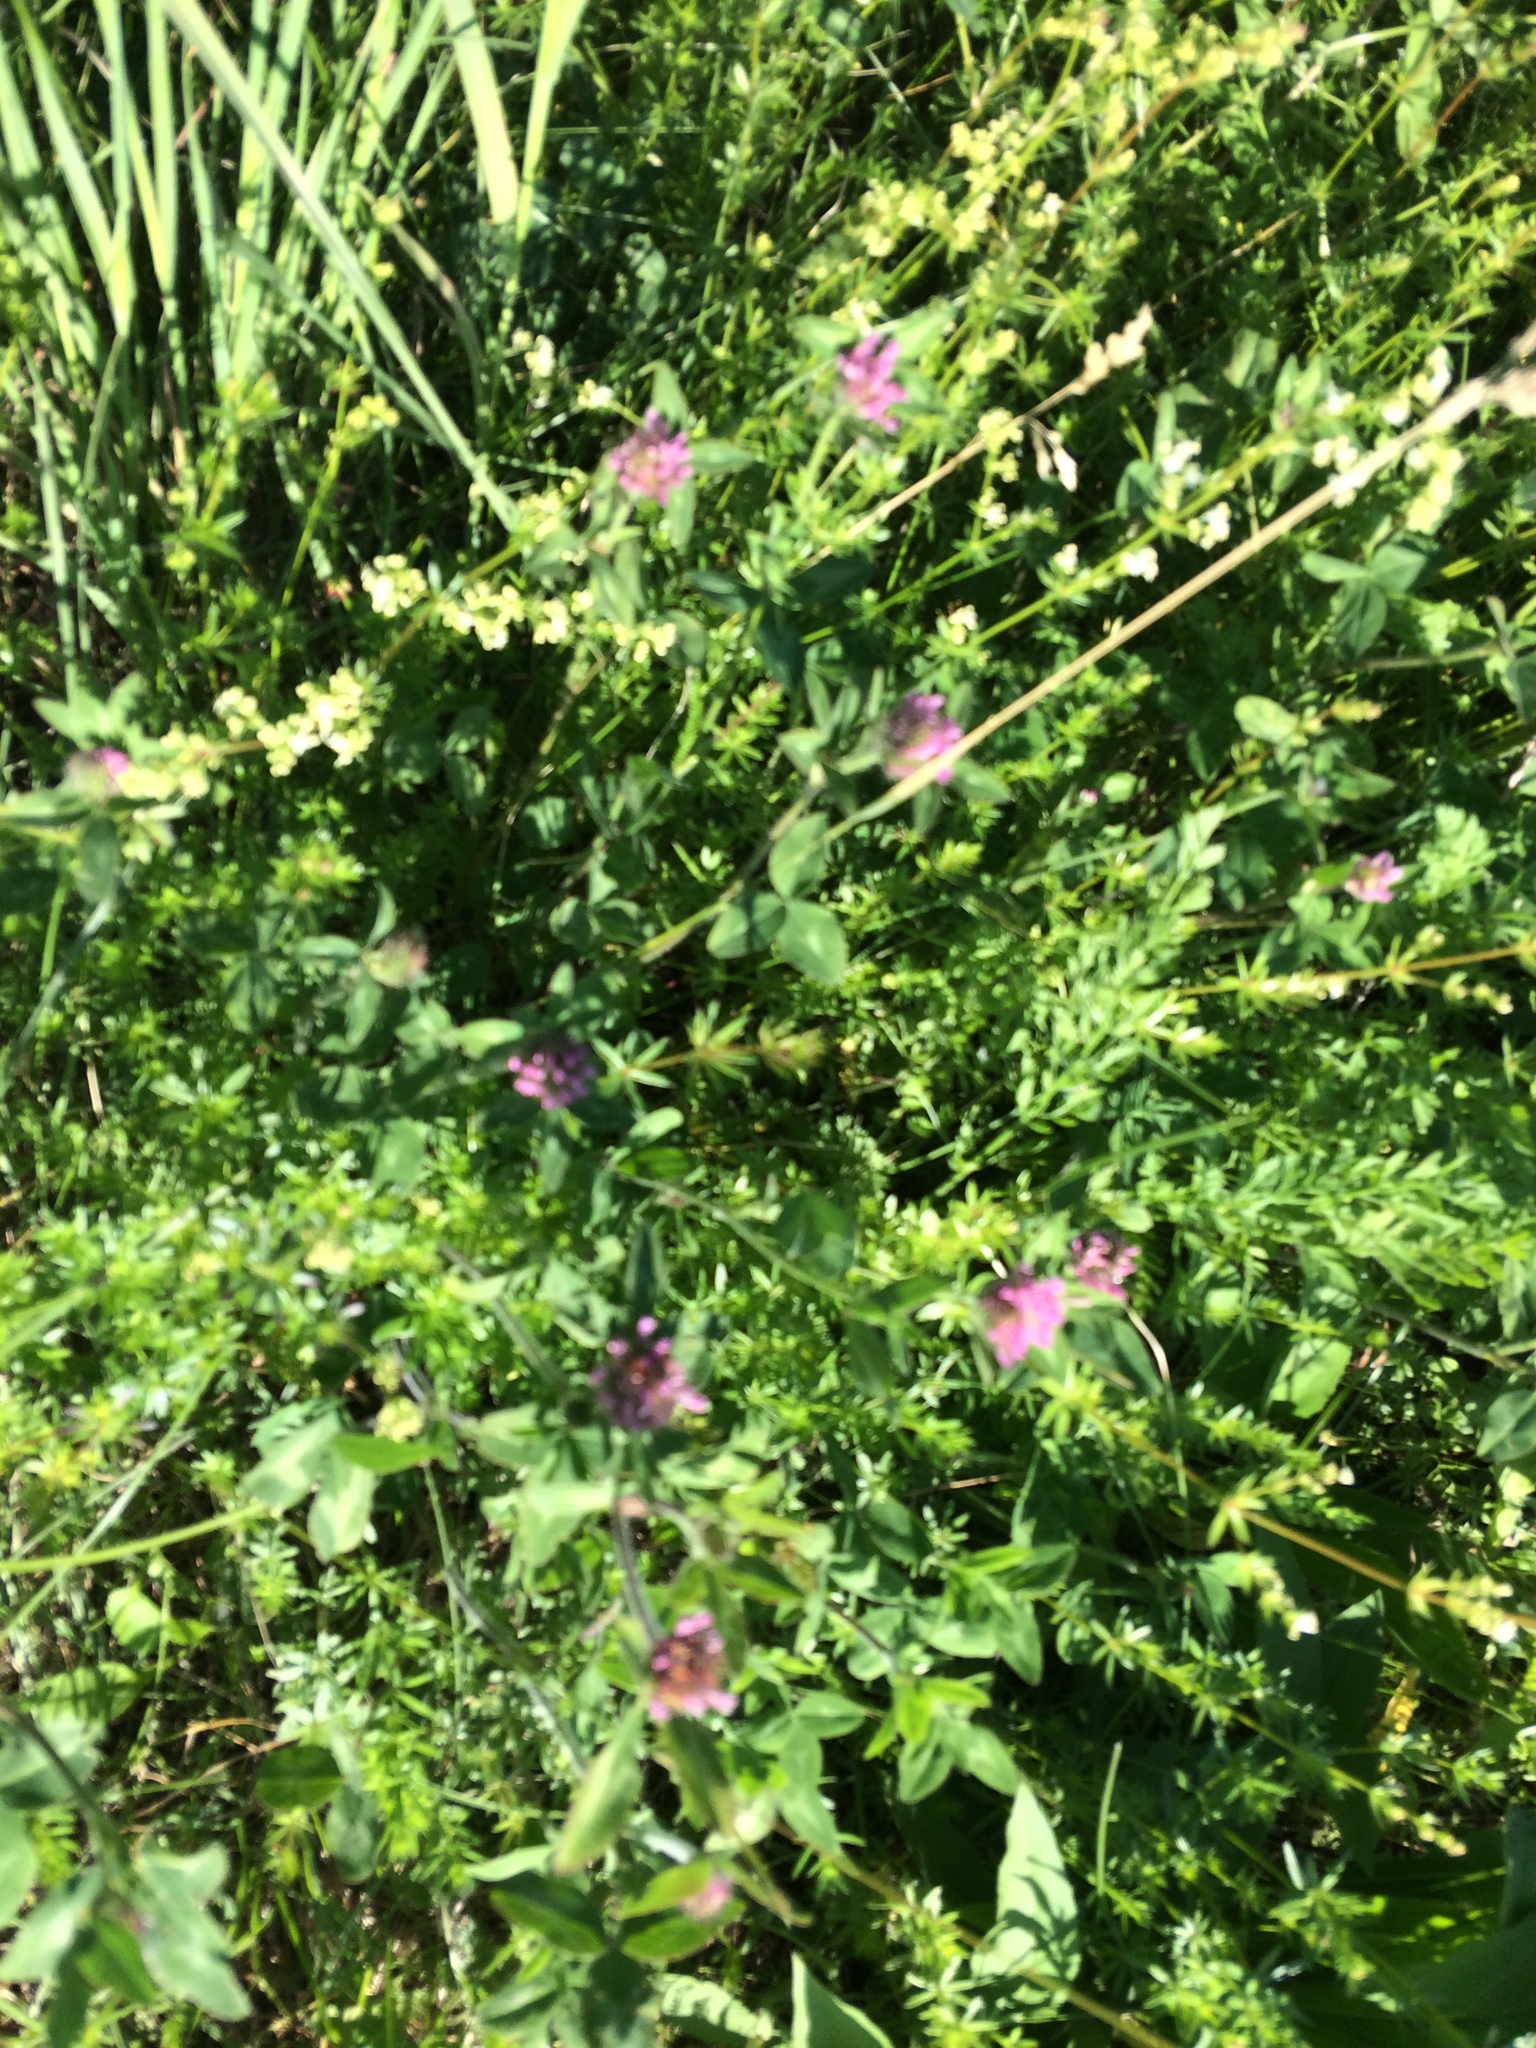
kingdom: Plantae
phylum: Tracheophyta
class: Magnoliopsida
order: Fabales
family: Fabaceae
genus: Trifolium
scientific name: Trifolium pratense
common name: Red clover
